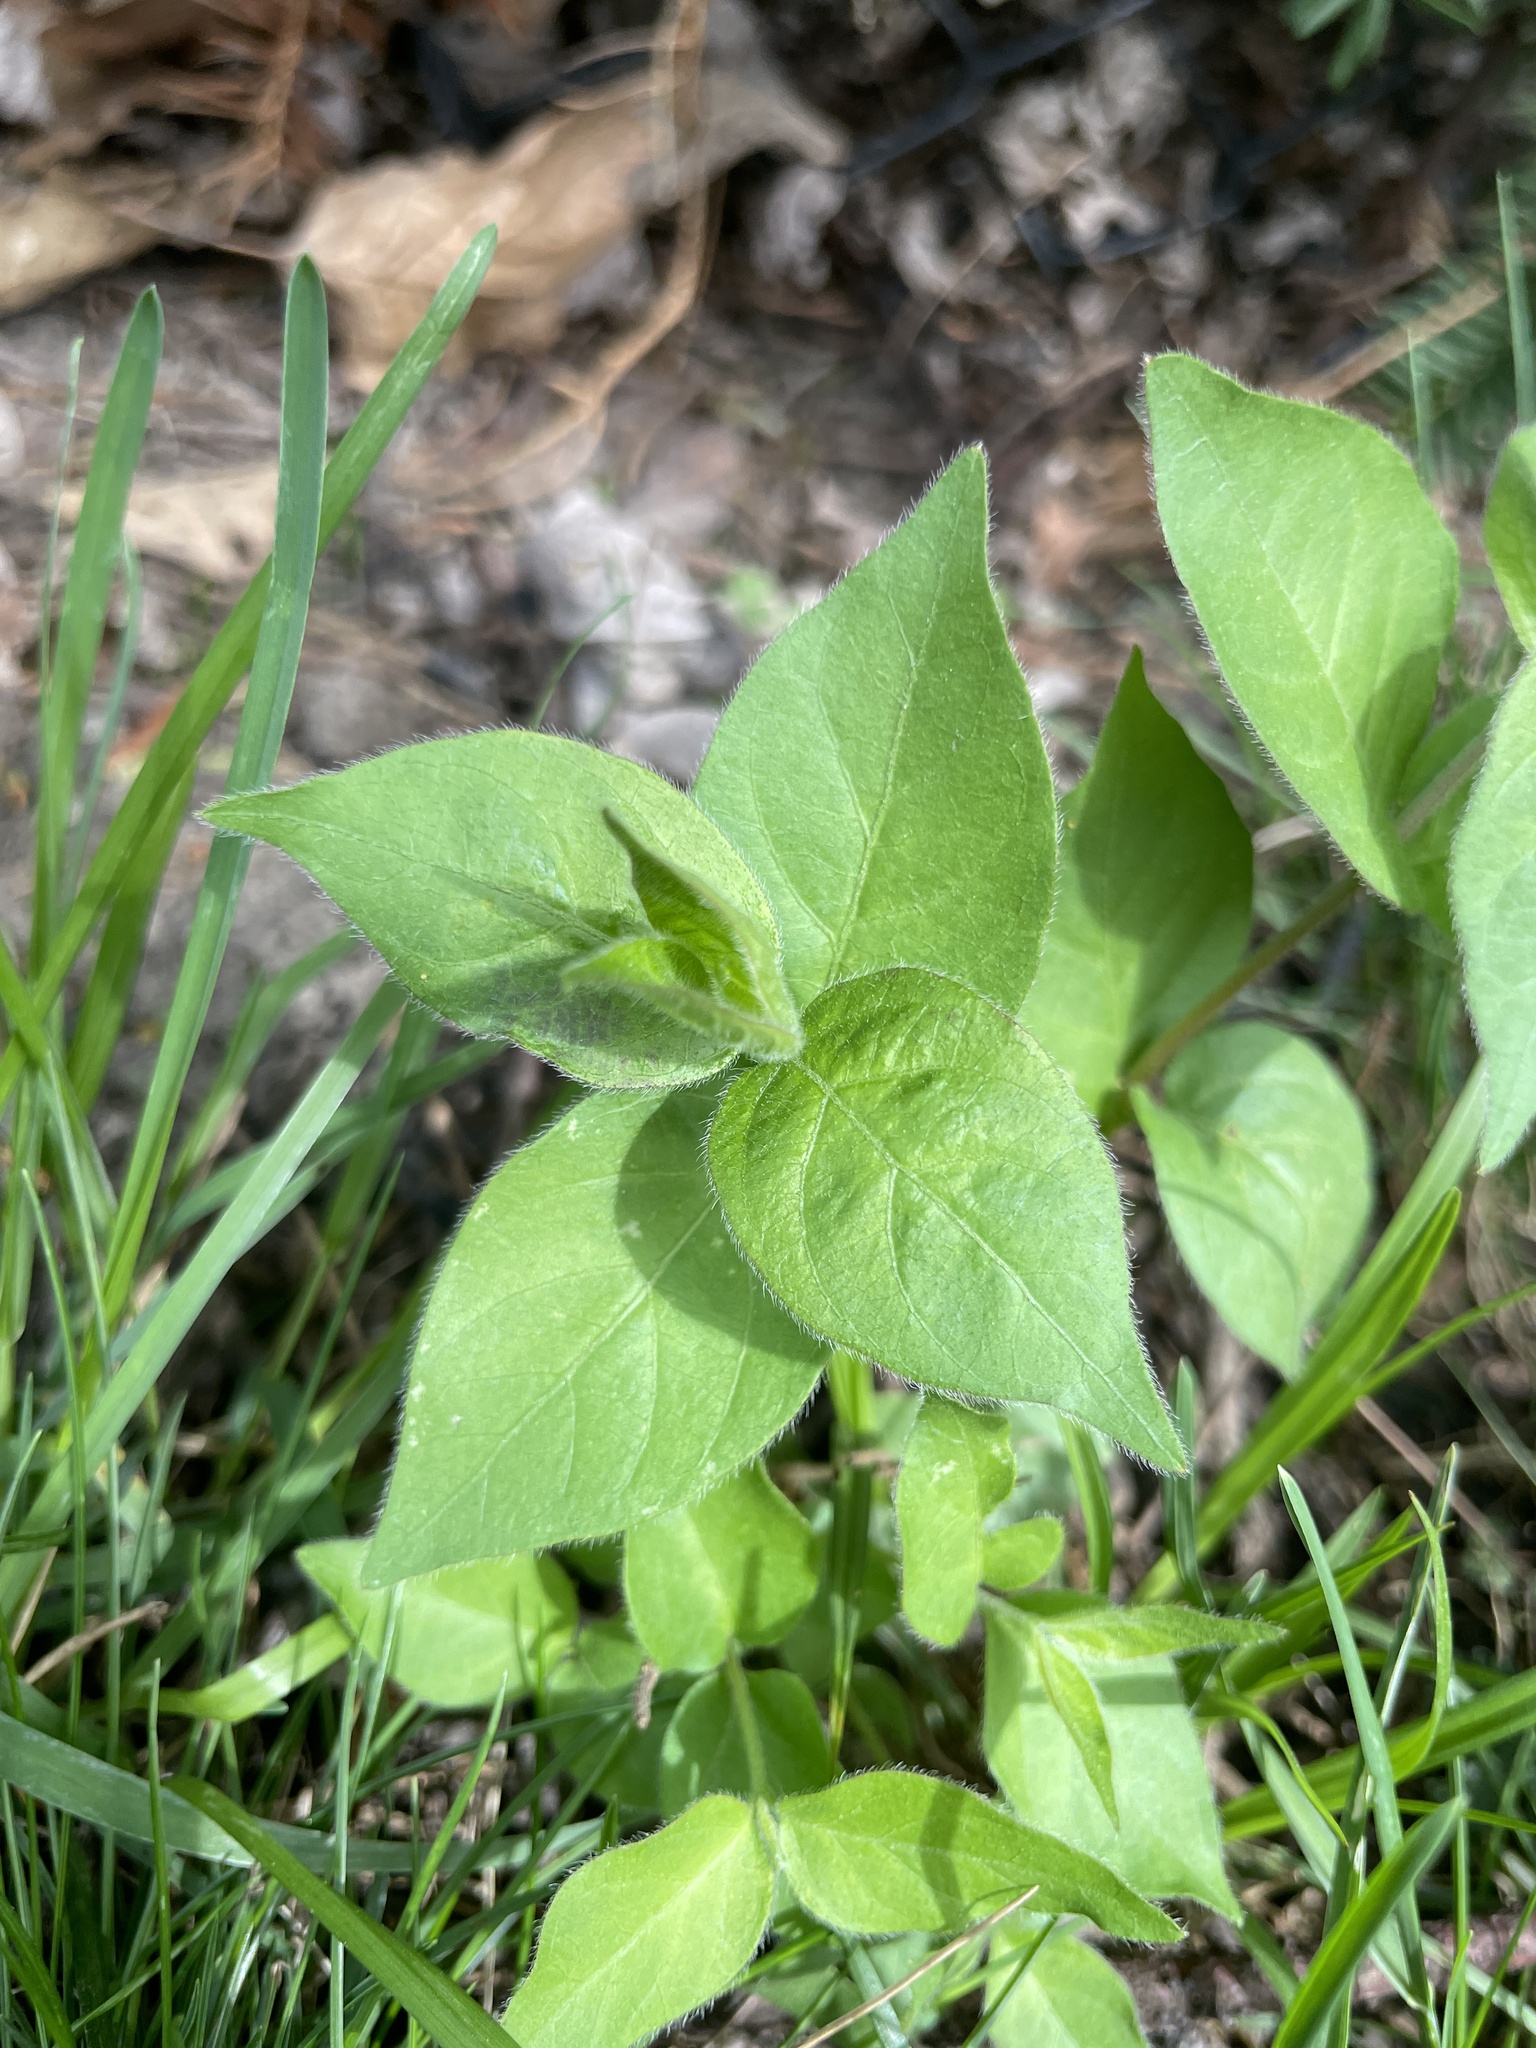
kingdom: Plantae
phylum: Tracheophyta
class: Magnoliopsida
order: Dipsacales
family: Caprifoliaceae
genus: Lonicera
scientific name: Lonicera maackii
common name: Amur honeysuckle
